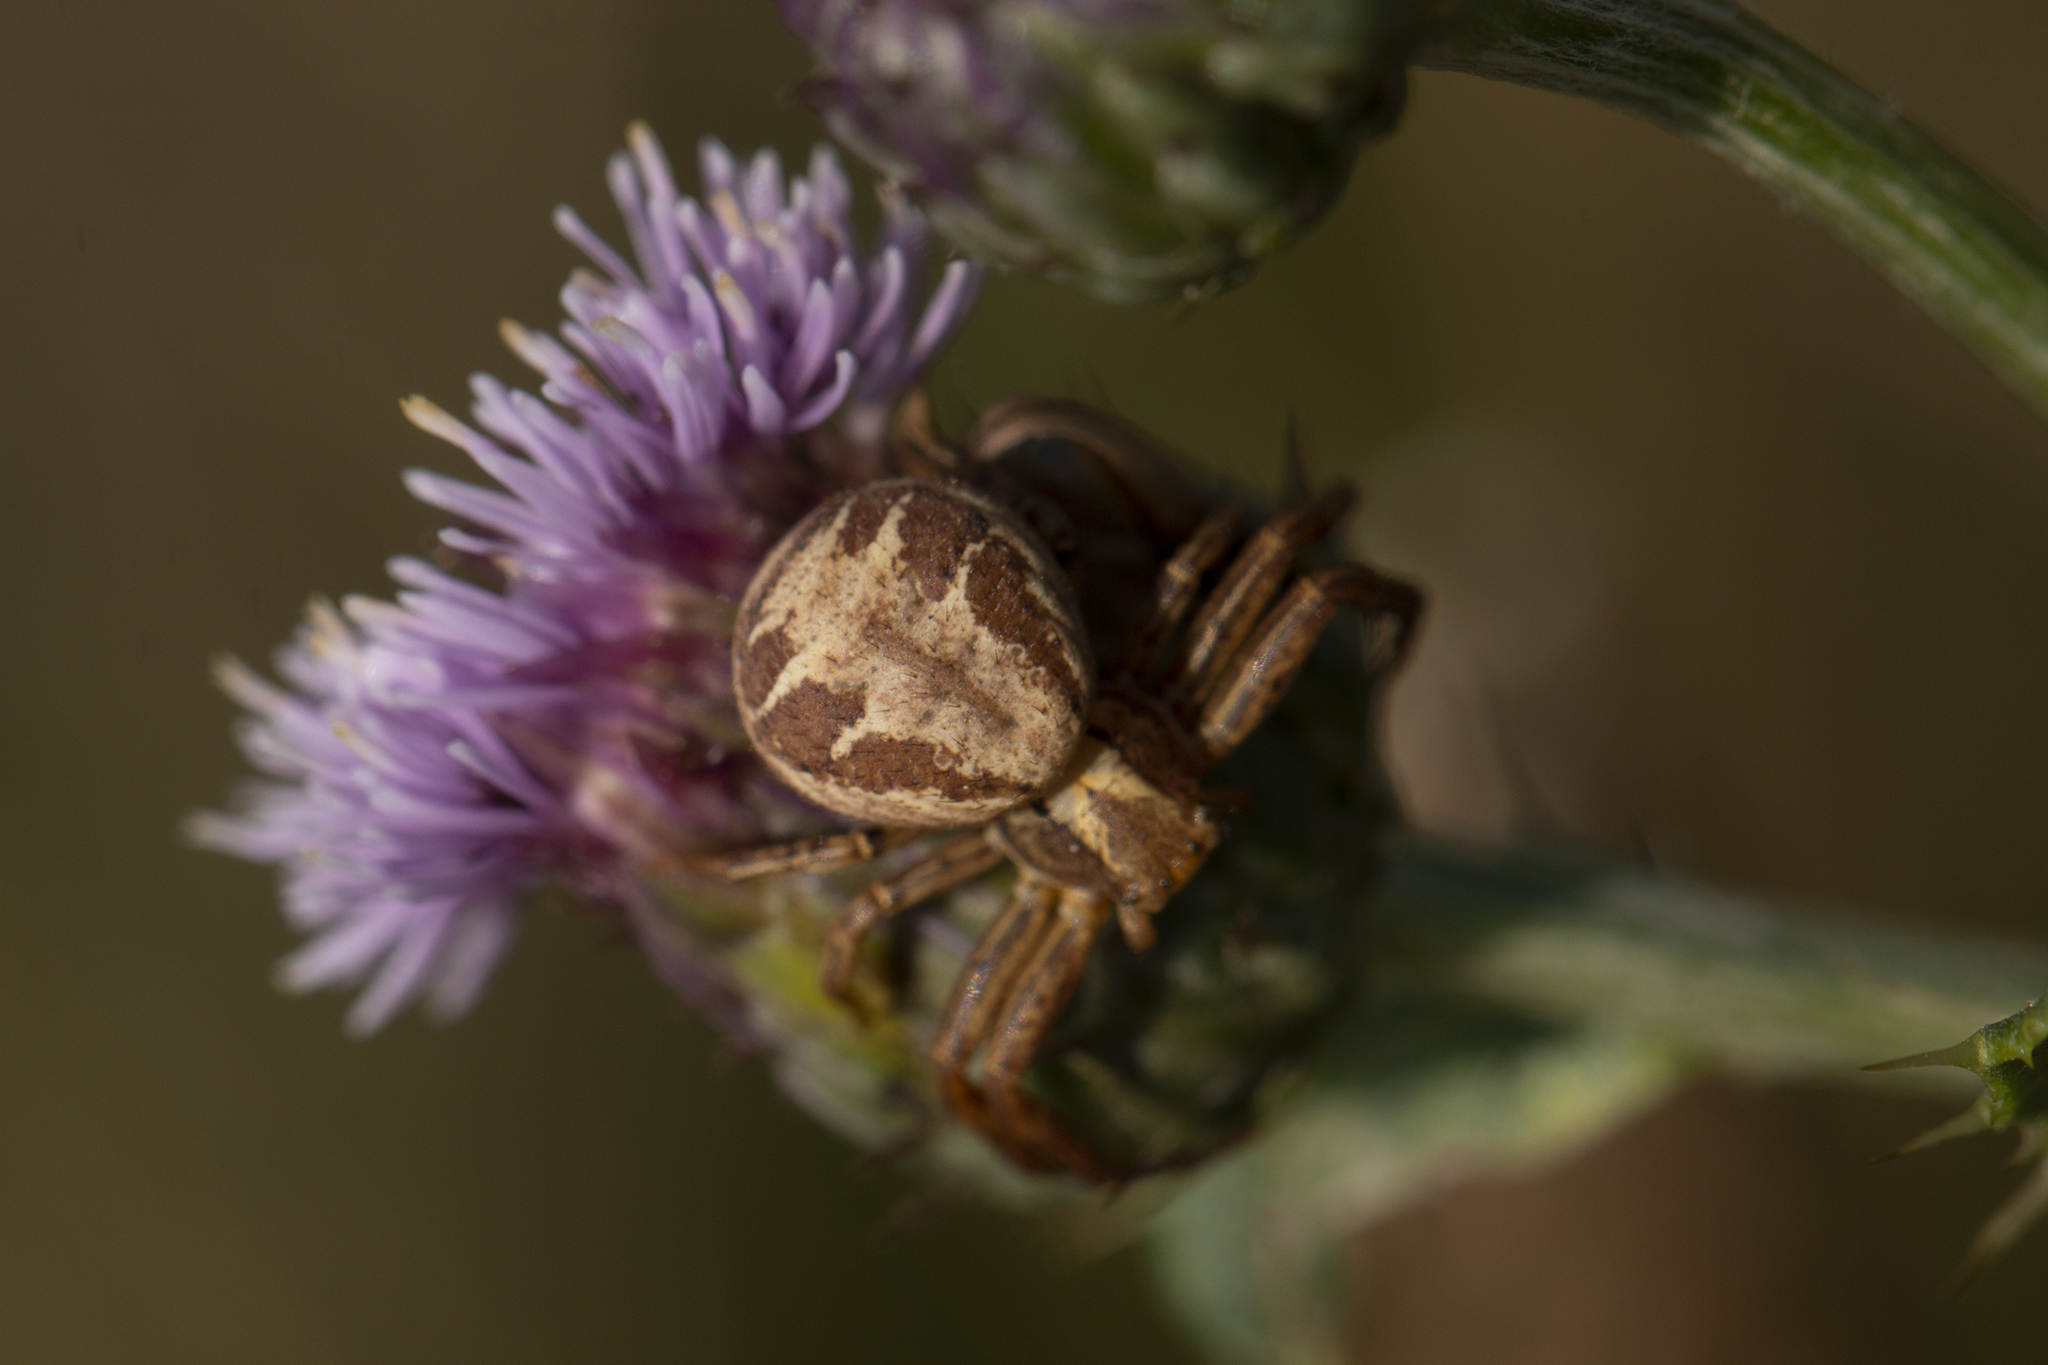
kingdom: Animalia
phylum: Arthropoda
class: Arachnida
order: Araneae
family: Thomisidae
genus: Xysticus
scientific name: Xysticus
